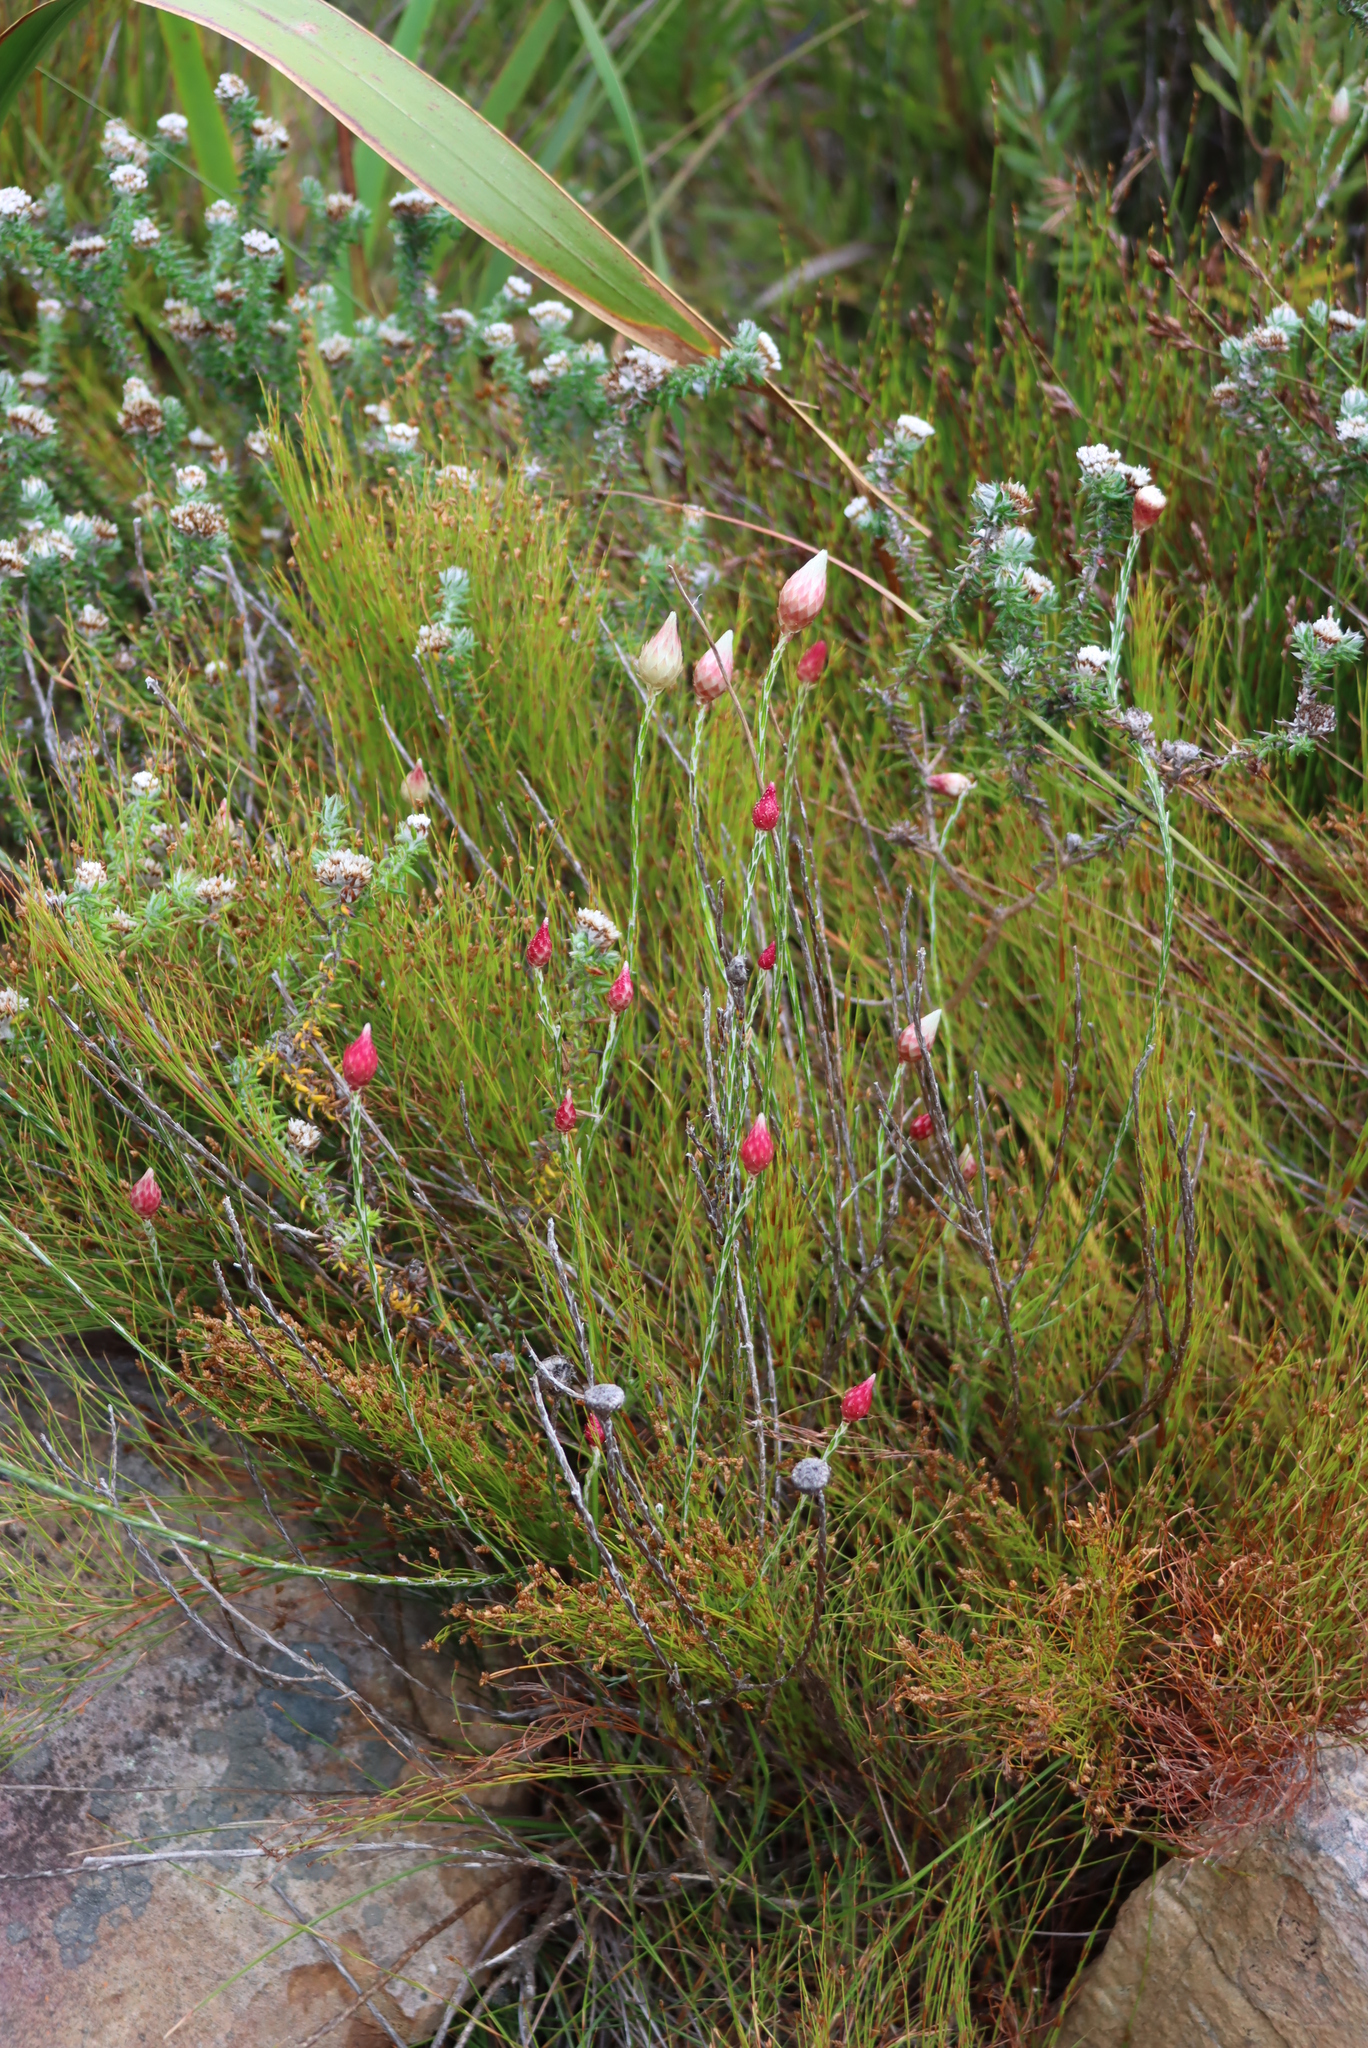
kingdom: Plantae
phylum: Tracheophyta
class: Magnoliopsida
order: Asterales
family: Asteraceae
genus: Edmondia
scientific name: Edmondia sesamoides
